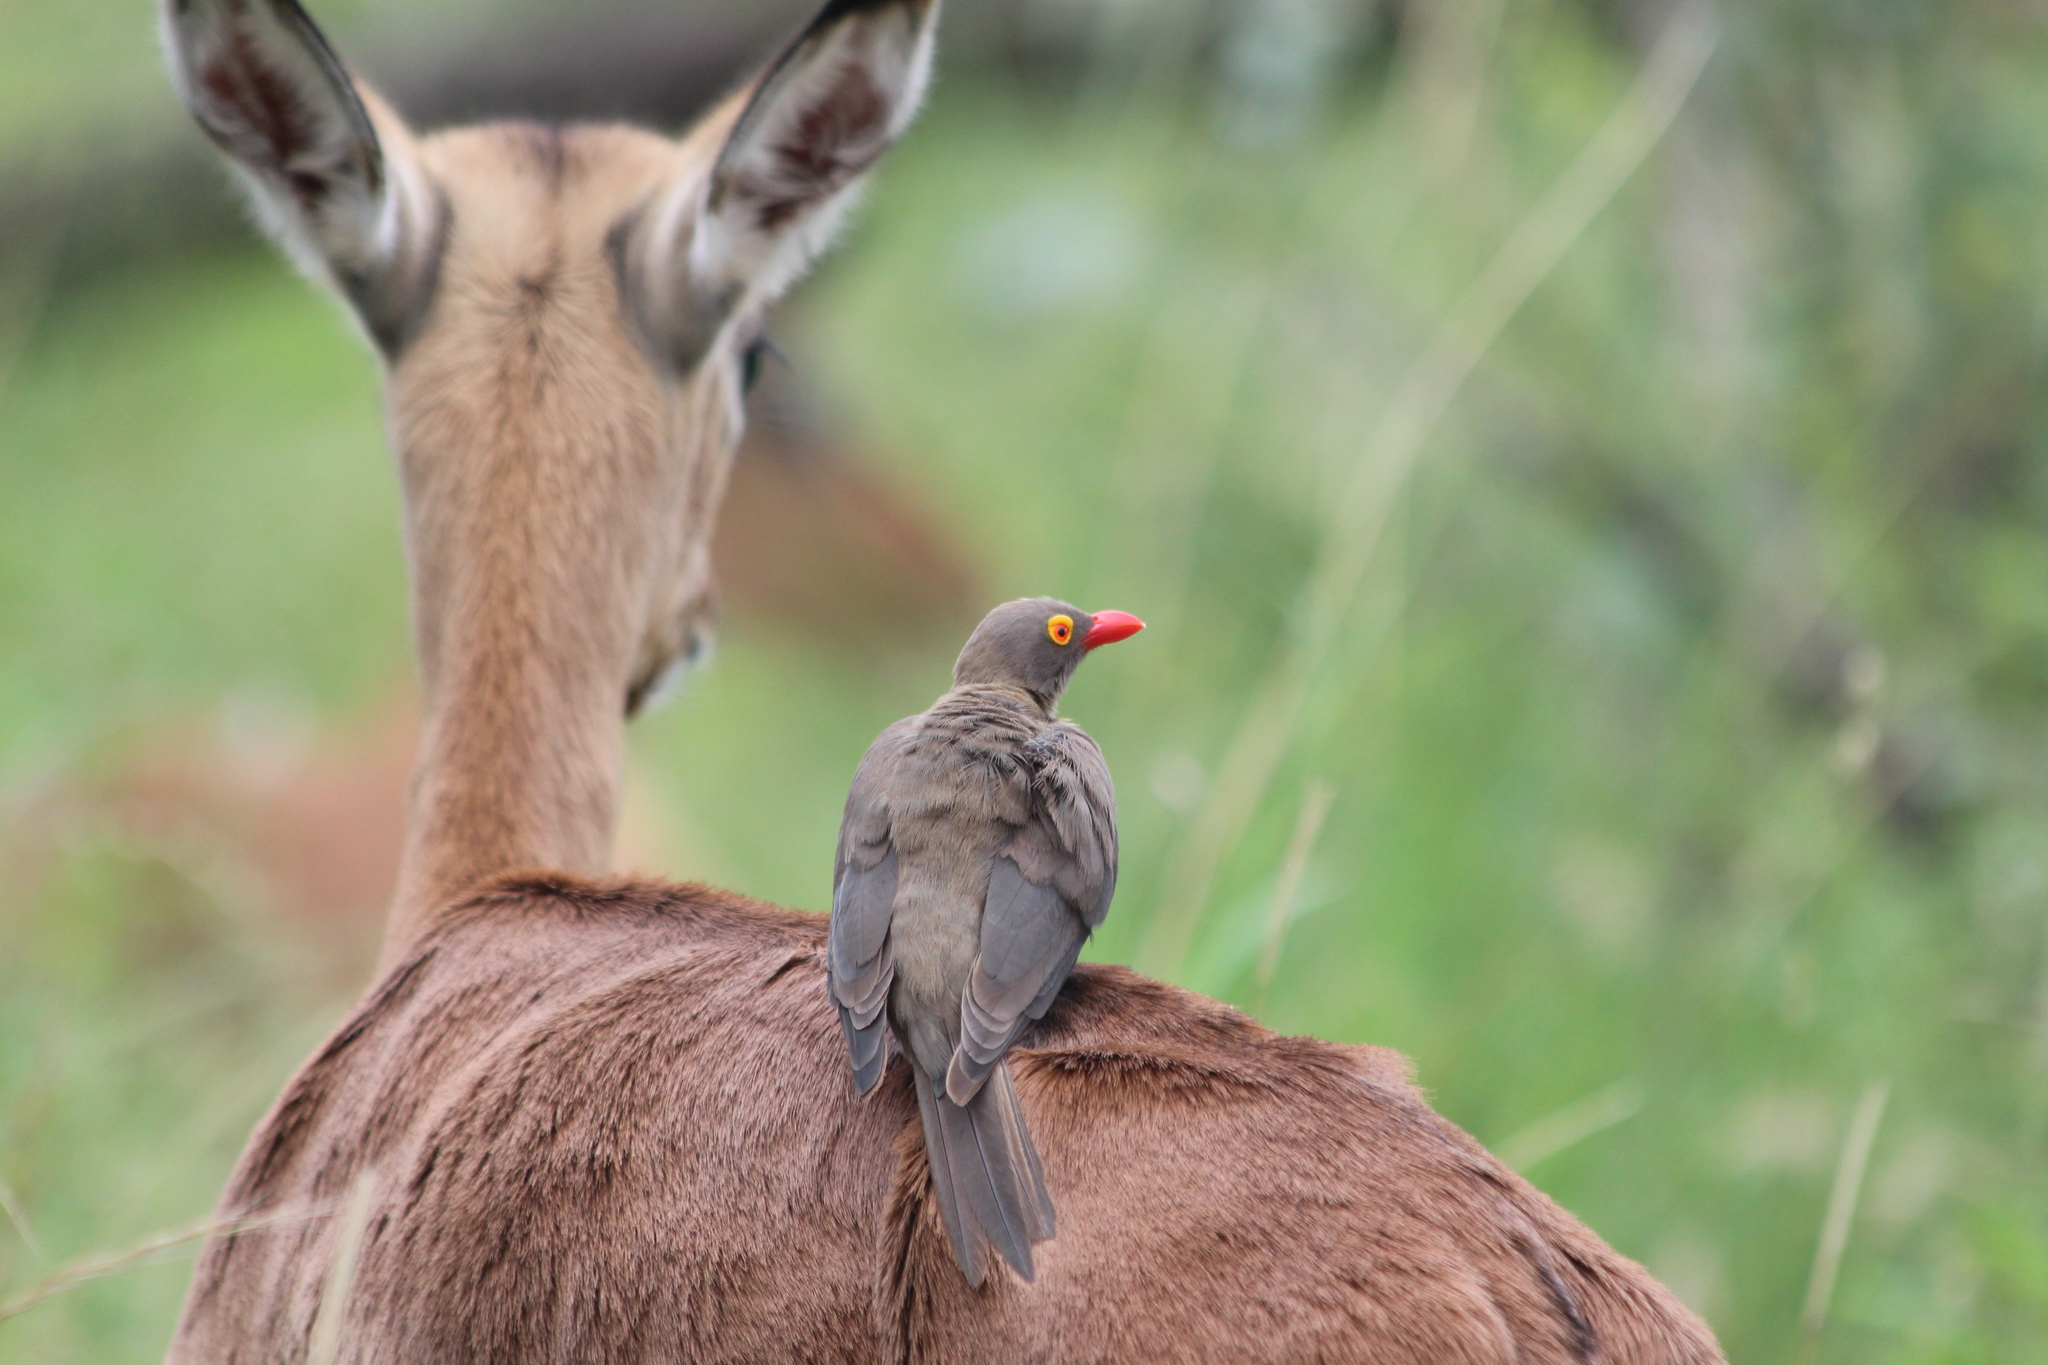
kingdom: Animalia
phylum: Chordata
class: Aves
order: Passeriformes
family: Buphagidae
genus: Buphagus
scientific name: Buphagus erythrorhynchus
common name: Red-billed oxpecker
